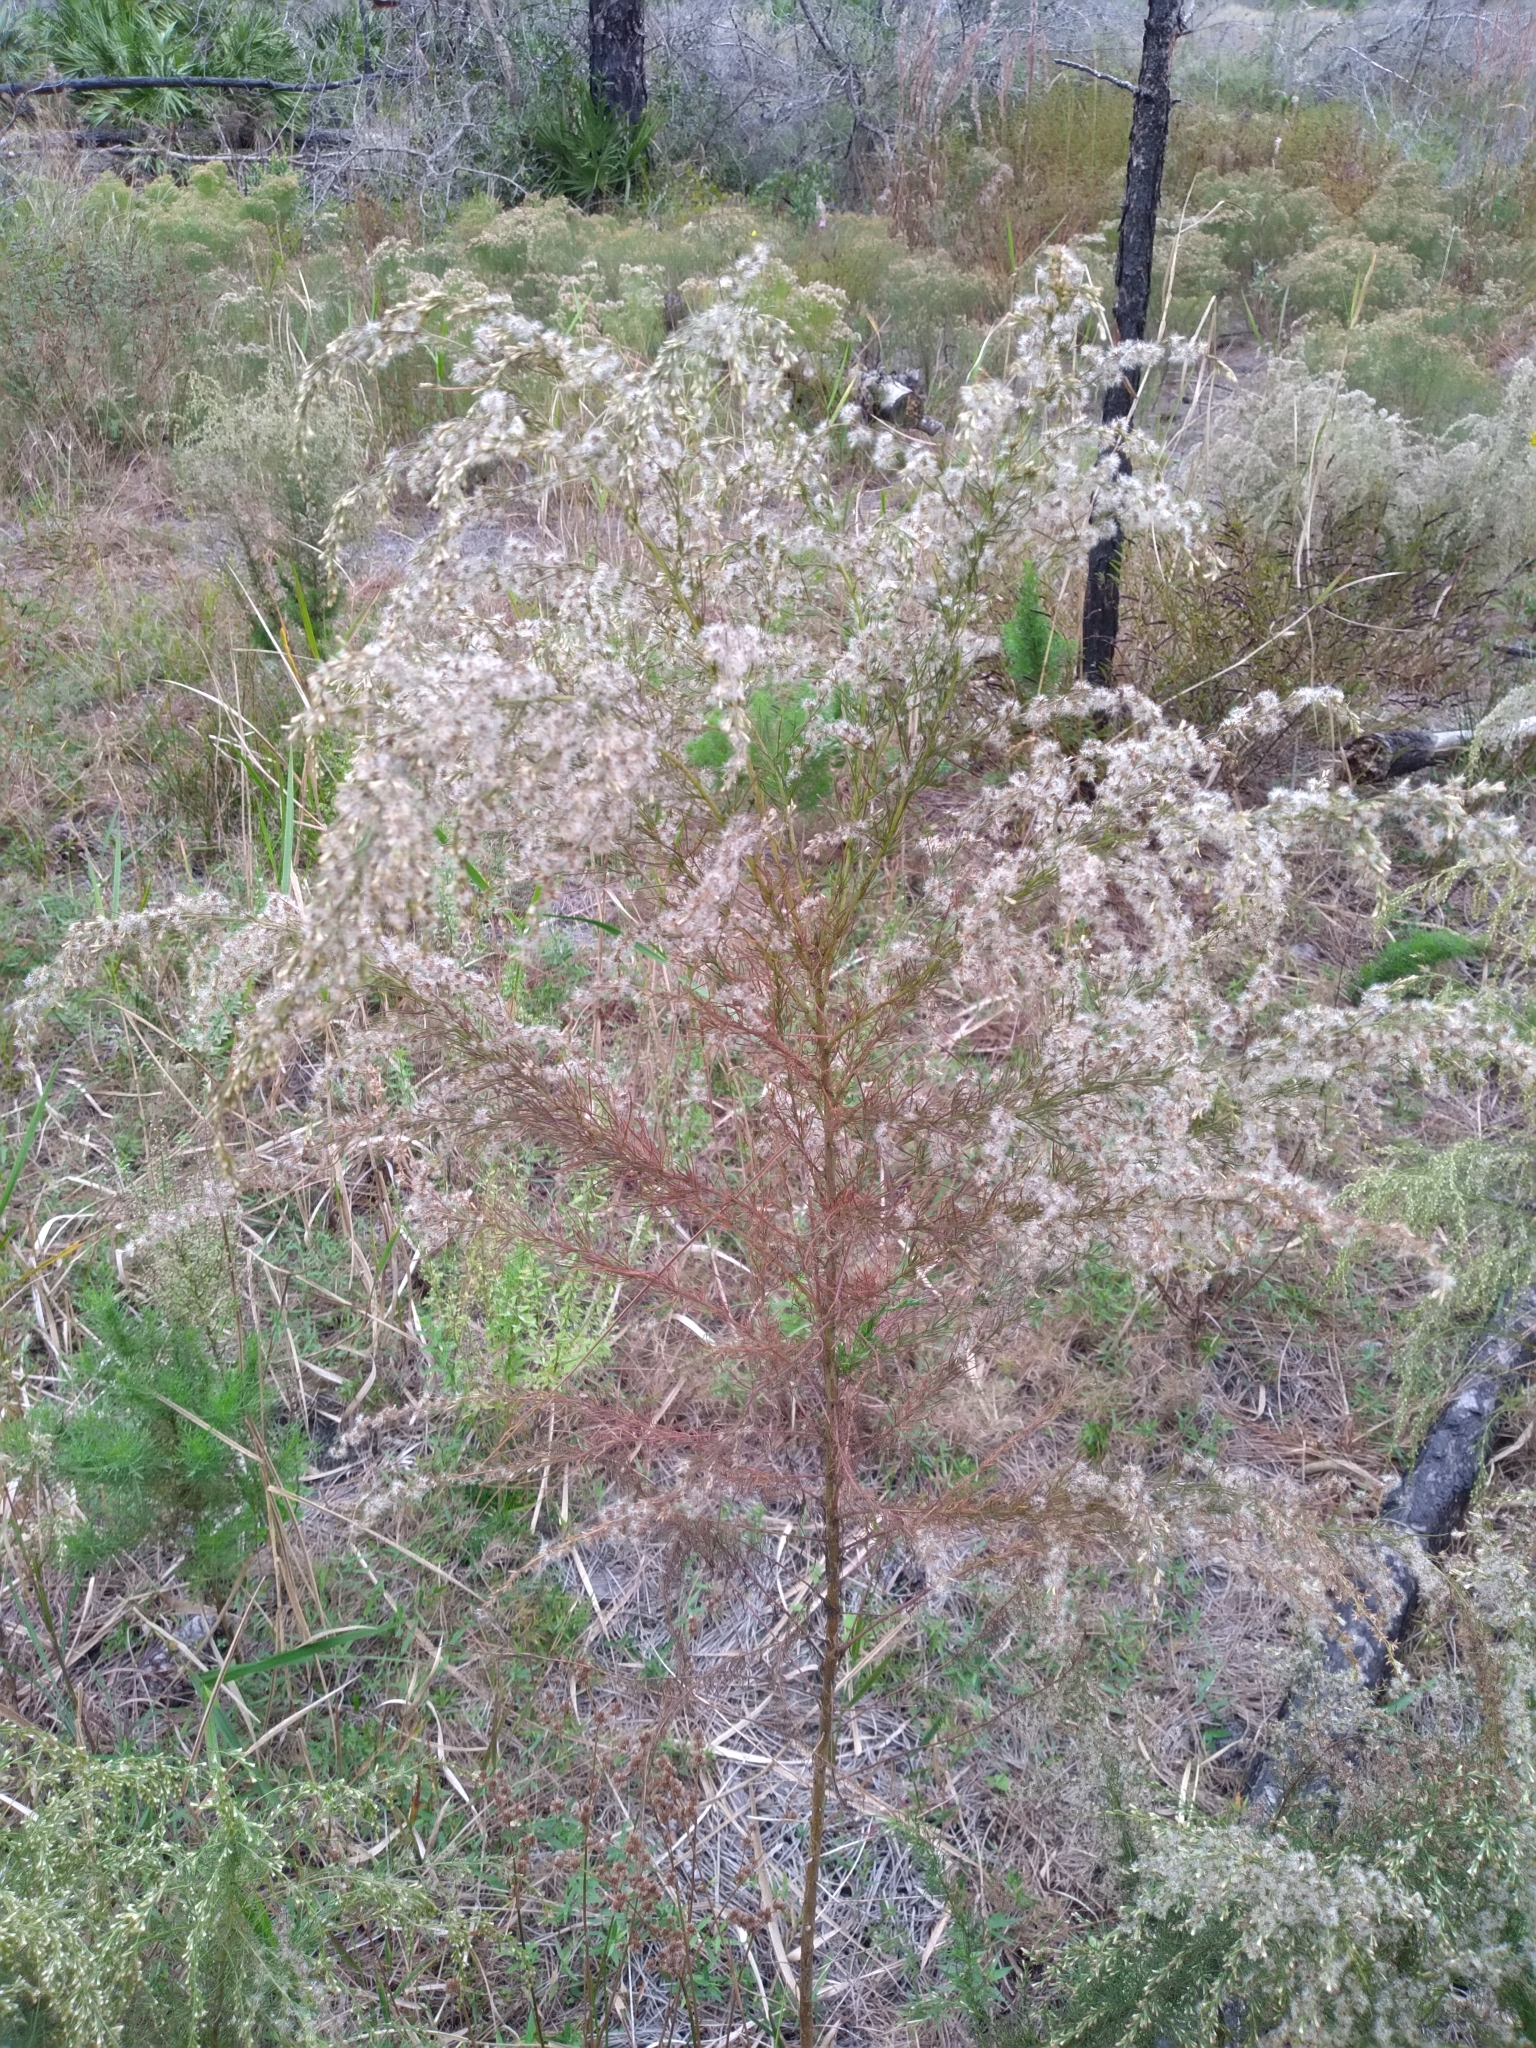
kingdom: Plantae
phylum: Tracheophyta
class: Magnoliopsida
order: Asterales
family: Asteraceae
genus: Eupatorium
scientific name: Eupatorium capillifolium
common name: Dog-fennel
